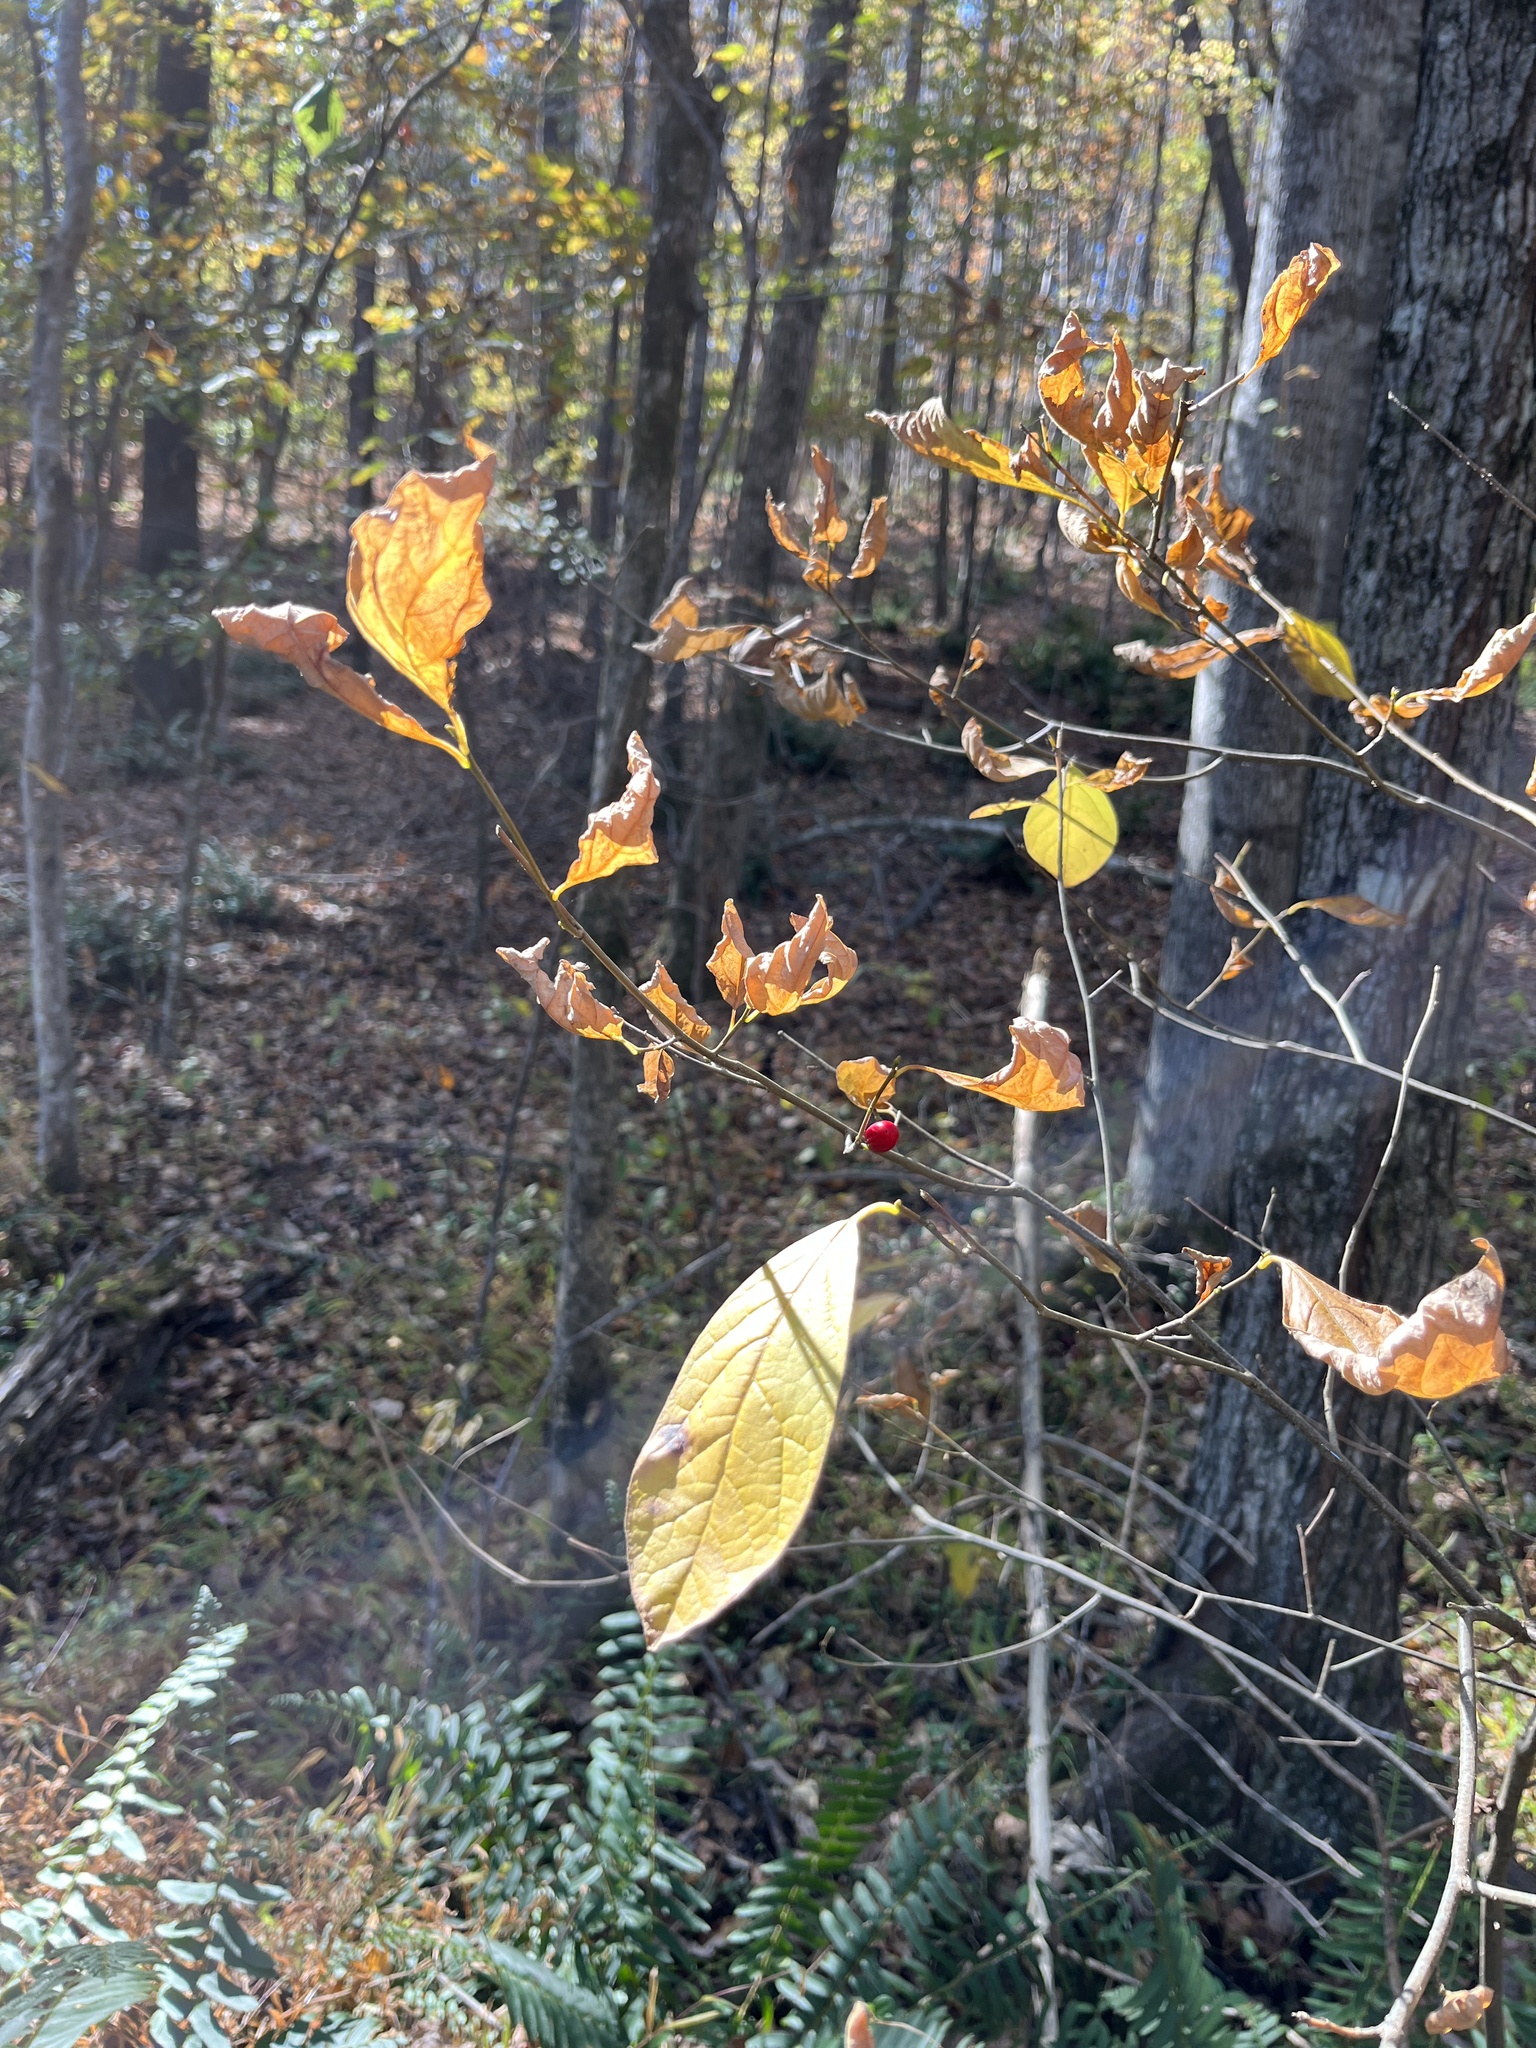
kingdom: Plantae
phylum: Tracheophyta
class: Magnoliopsida
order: Laurales
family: Lauraceae
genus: Lindera
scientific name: Lindera benzoin
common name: Spicebush
